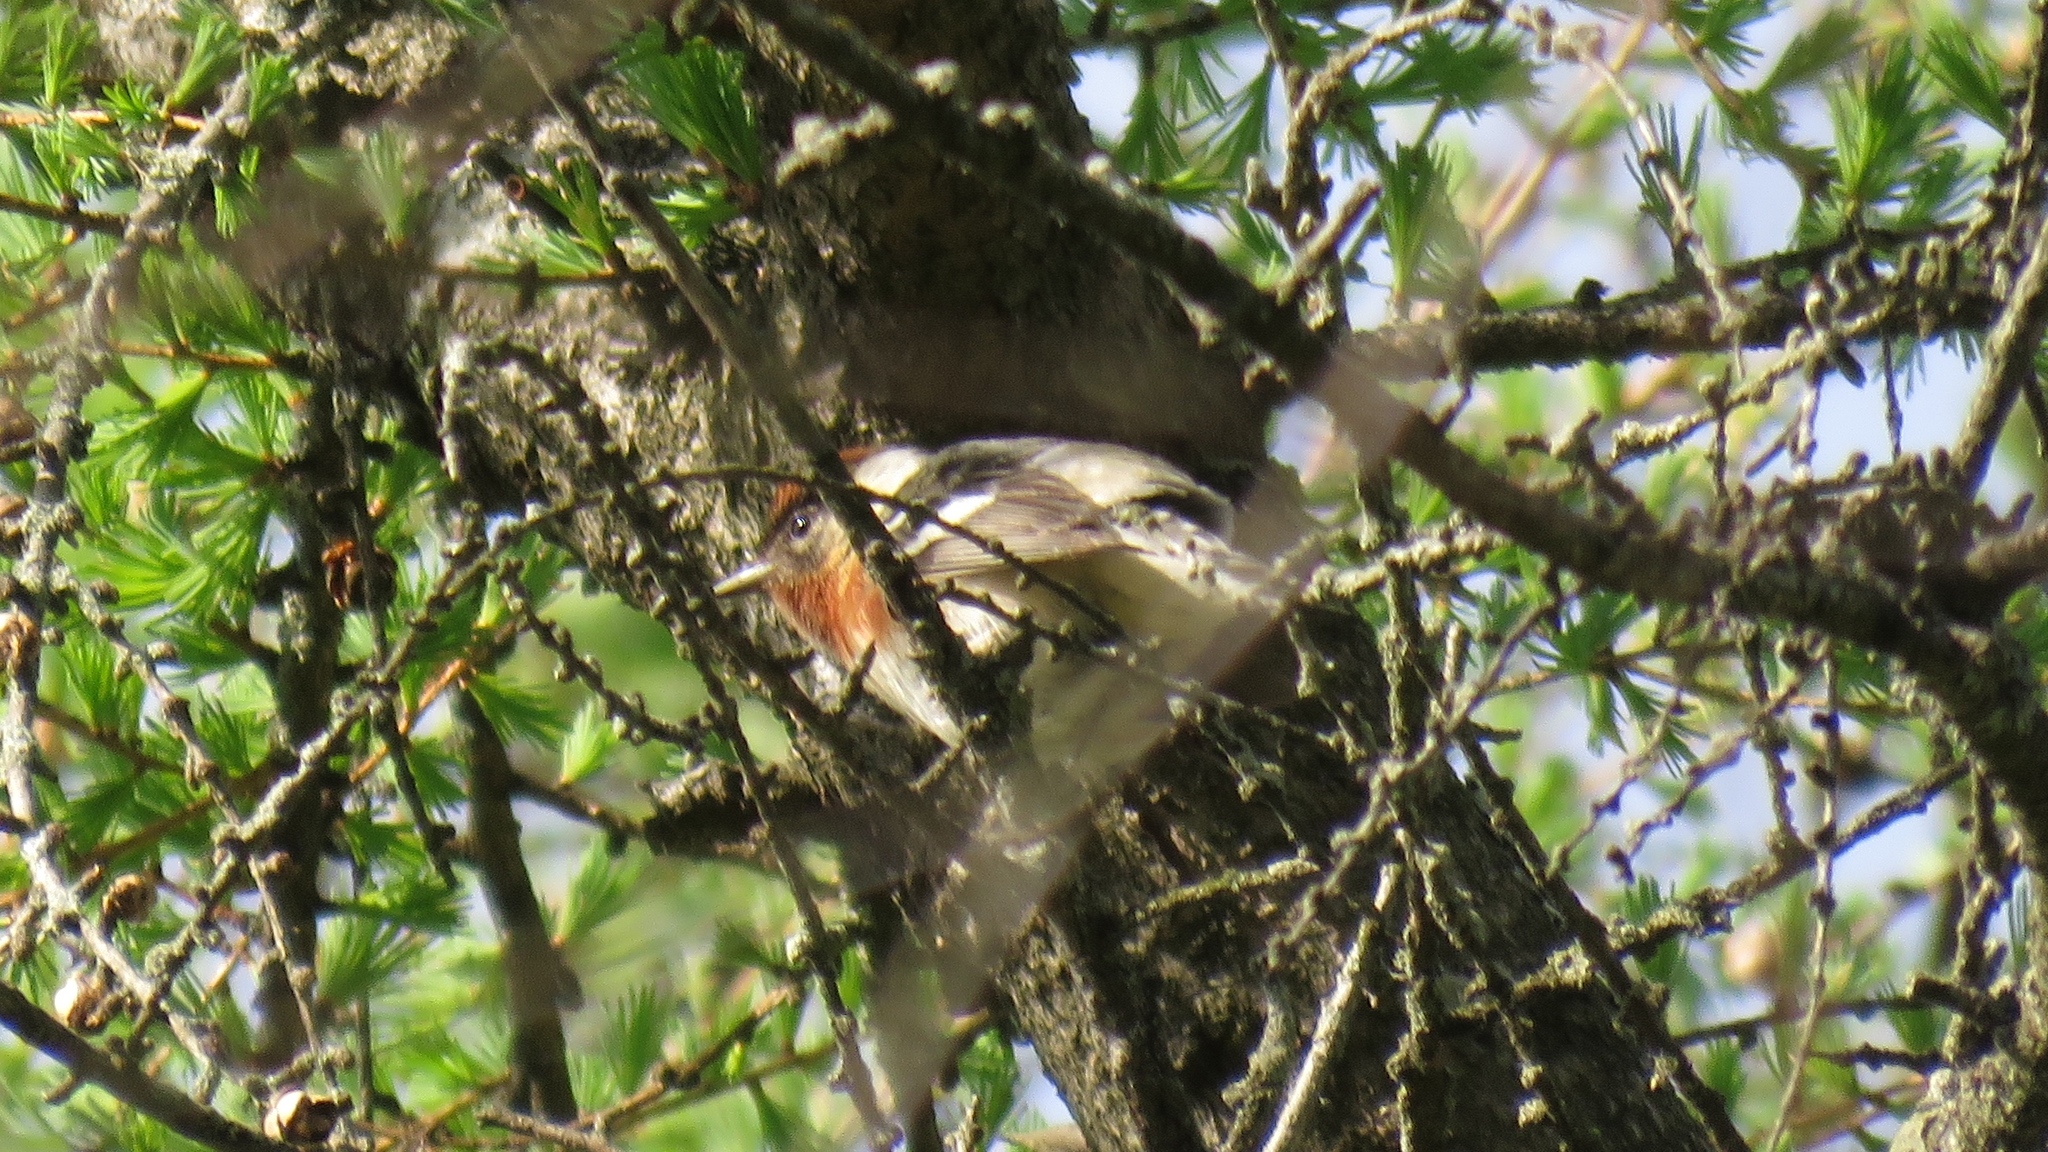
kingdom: Animalia
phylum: Chordata
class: Aves
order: Passeriformes
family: Parulidae
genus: Setophaga
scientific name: Setophaga castanea
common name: Bay-breasted warbler
